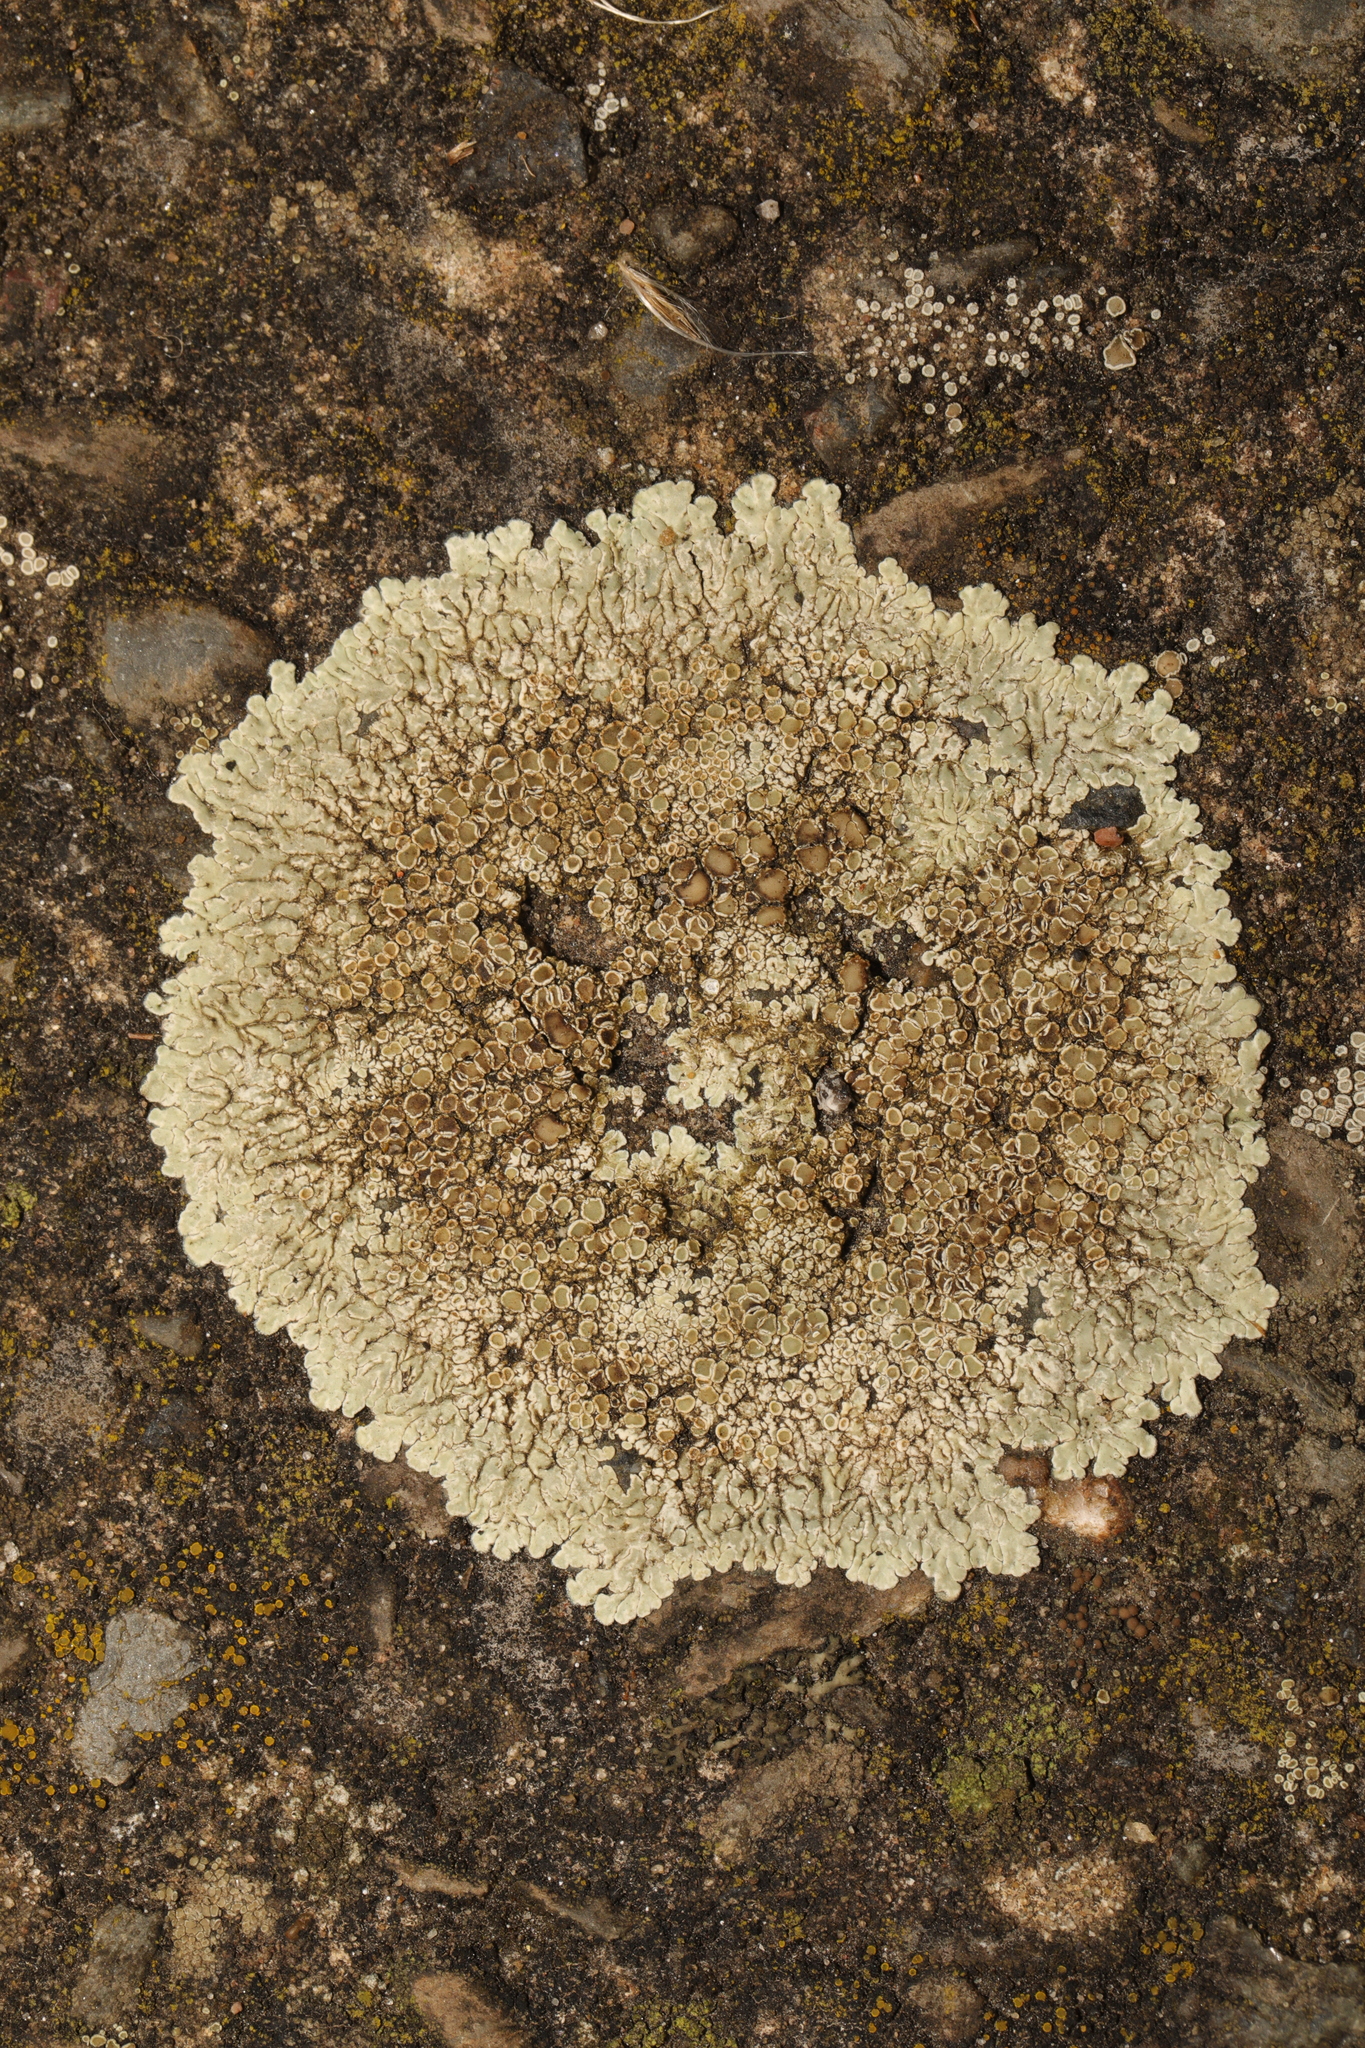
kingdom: Fungi
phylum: Ascomycota
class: Lecanoromycetes
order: Lecanorales
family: Lecanoraceae
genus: Protoparmeliopsis
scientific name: Protoparmeliopsis muralis
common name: Stonewall rim lichen
